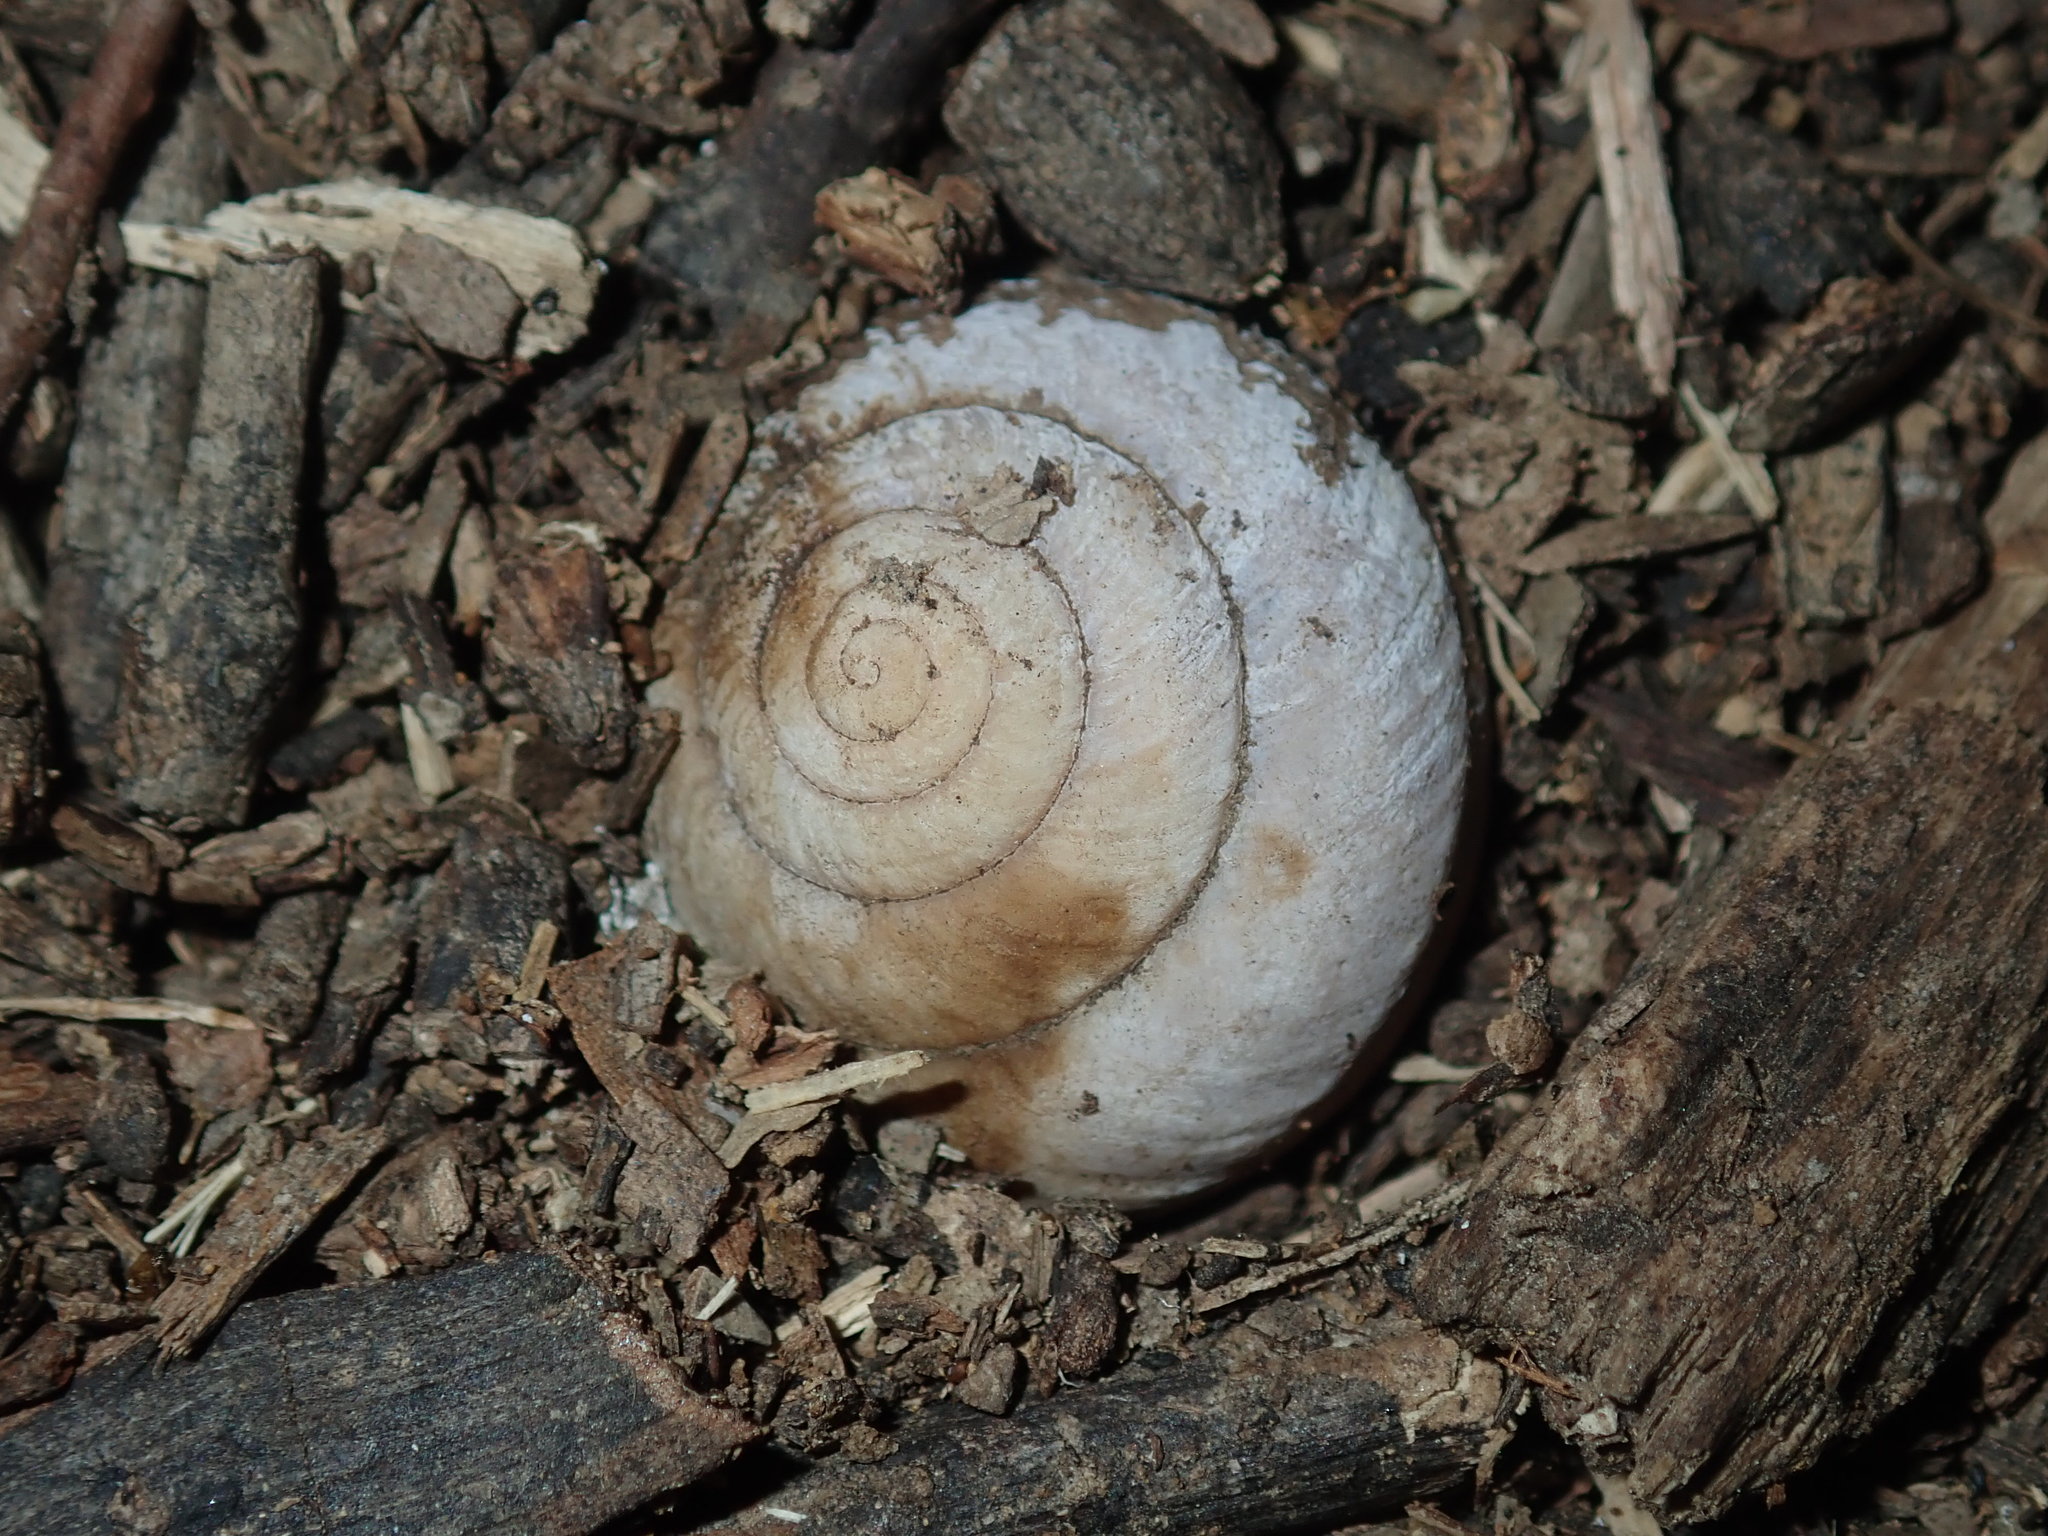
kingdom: Animalia
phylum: Mollusca
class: Gastropoda
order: Stylommatophora
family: Camaenidae
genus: Sauroconcha
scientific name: Sauroconcha sheai
